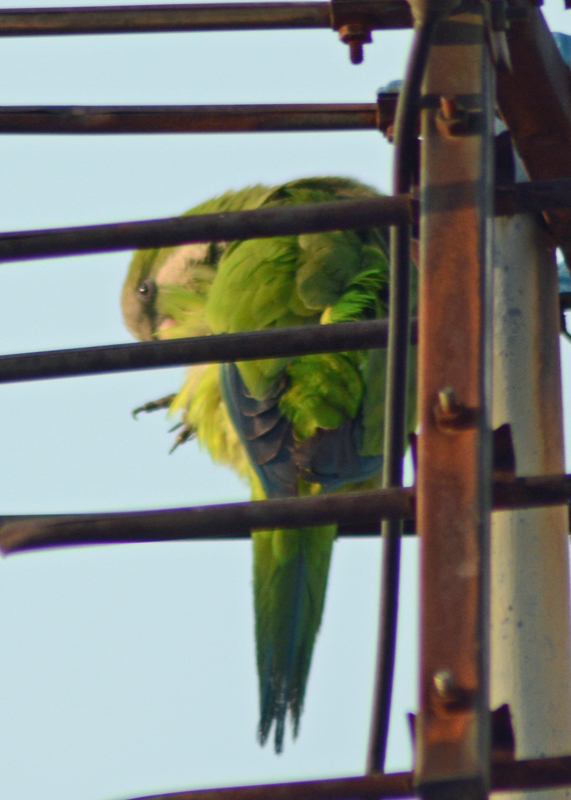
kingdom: Animalia
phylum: Chordata
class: Aves
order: Psittaciformes
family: Psittacidae
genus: Myiopsitta
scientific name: Myiopsitta monachus
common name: Monk parakeet
